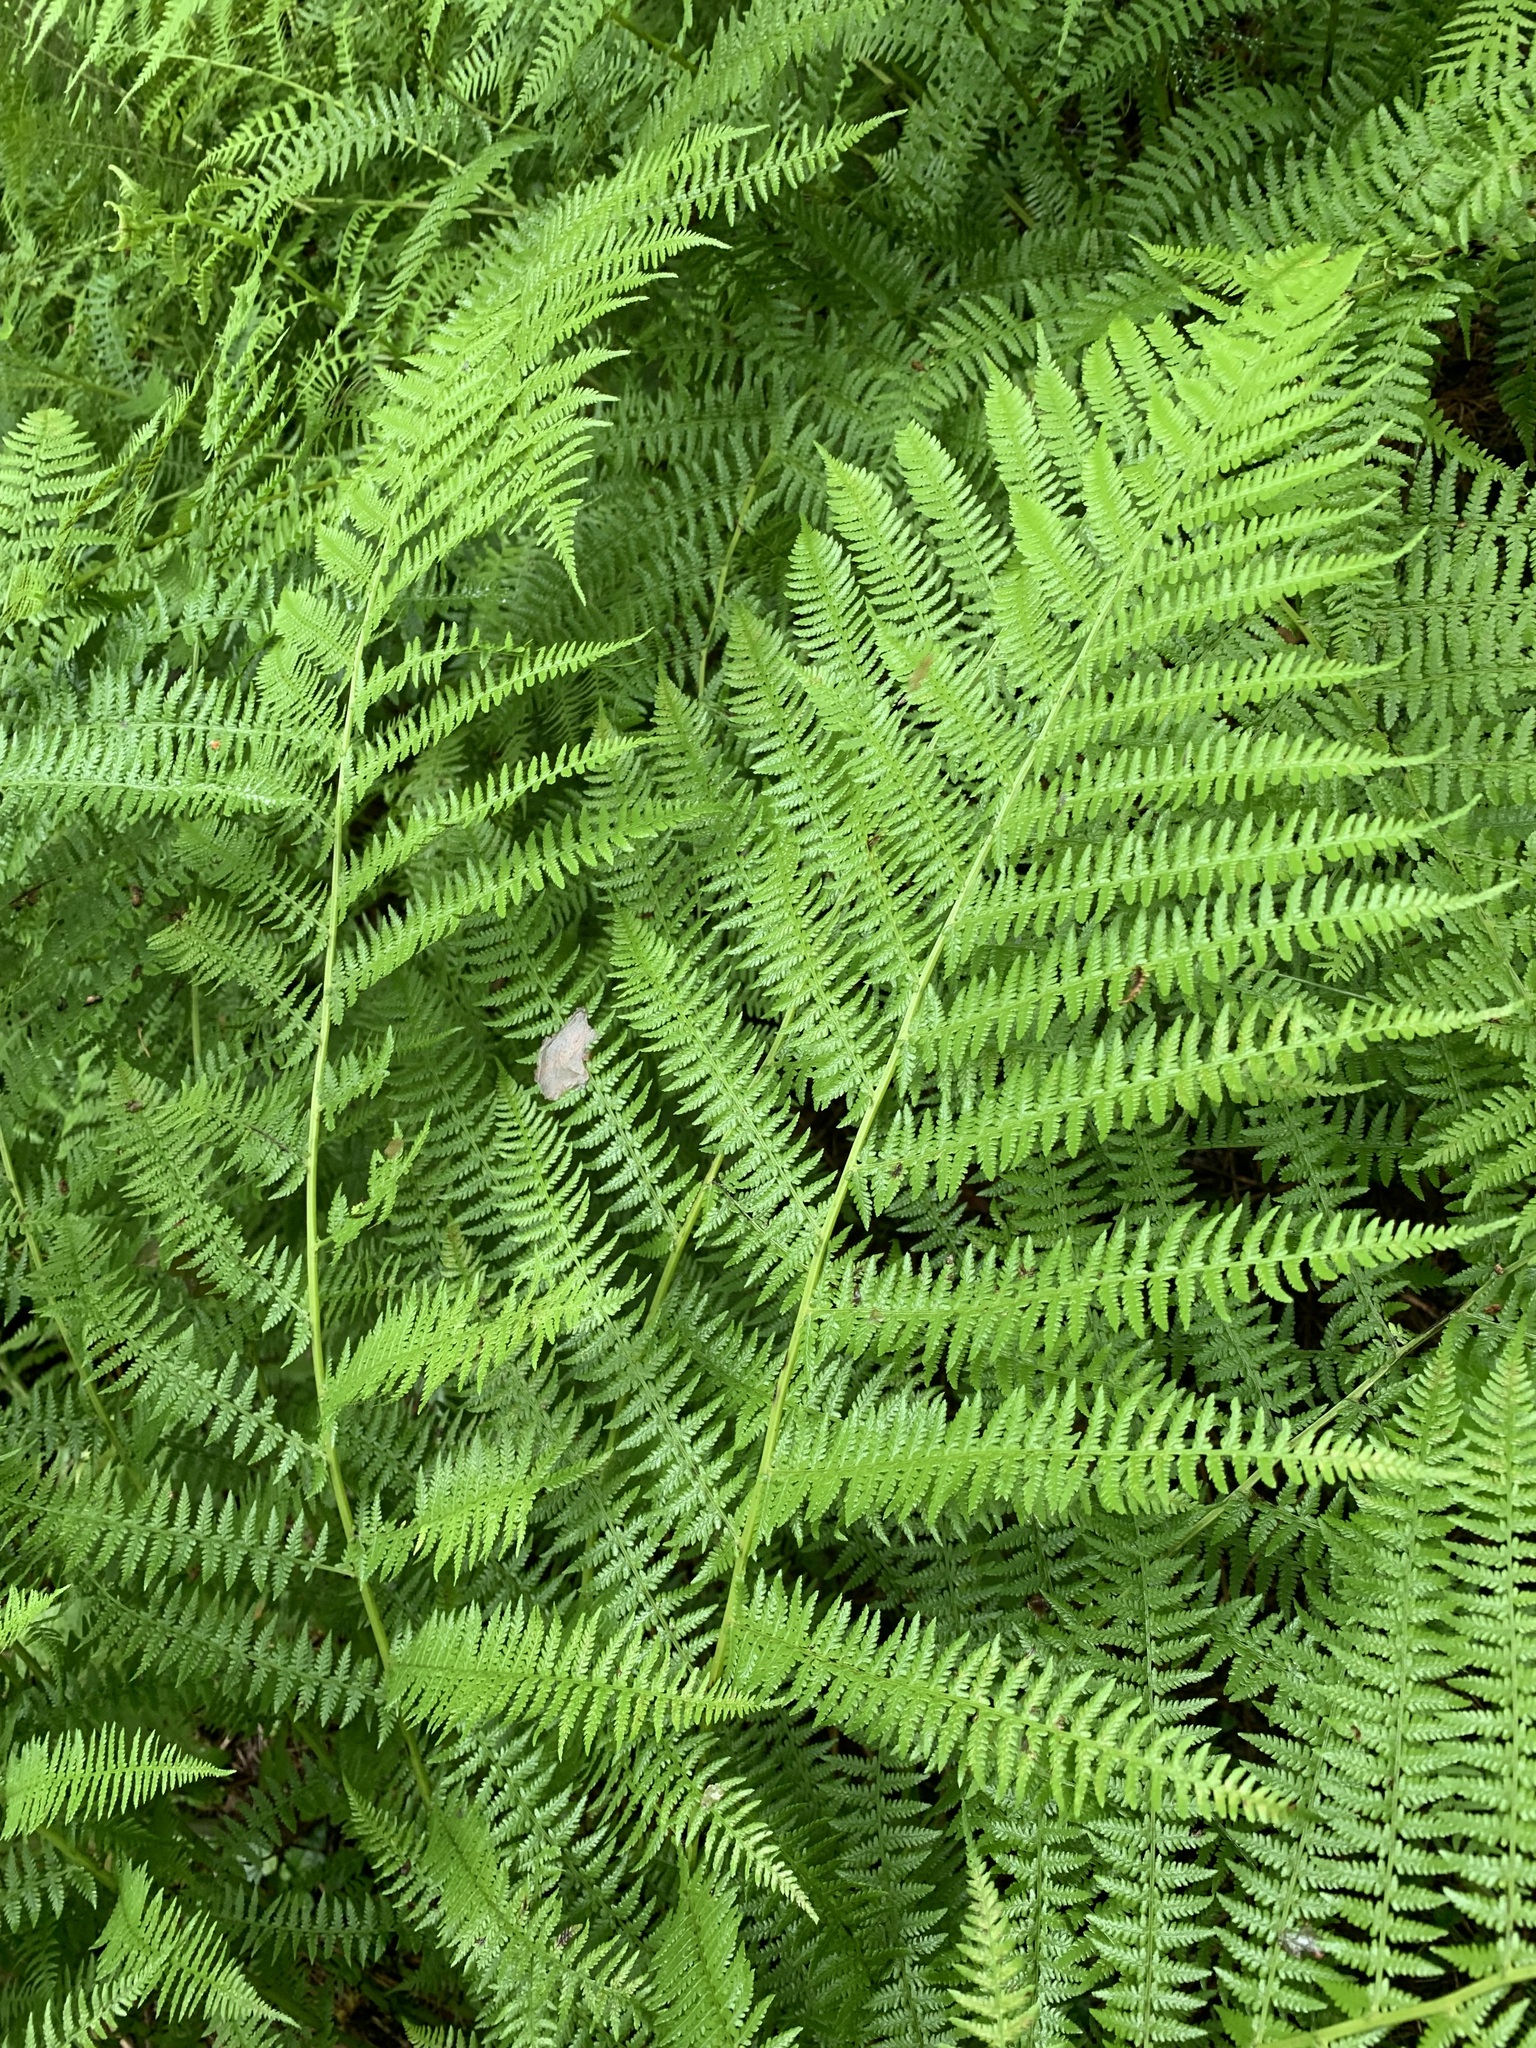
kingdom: Plantae
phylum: Tracheophyta
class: Polypodiopsida
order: Polypodiales
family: Athyriaceae
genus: Athyrium
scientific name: Athyrium filix-femina
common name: Lady fern
